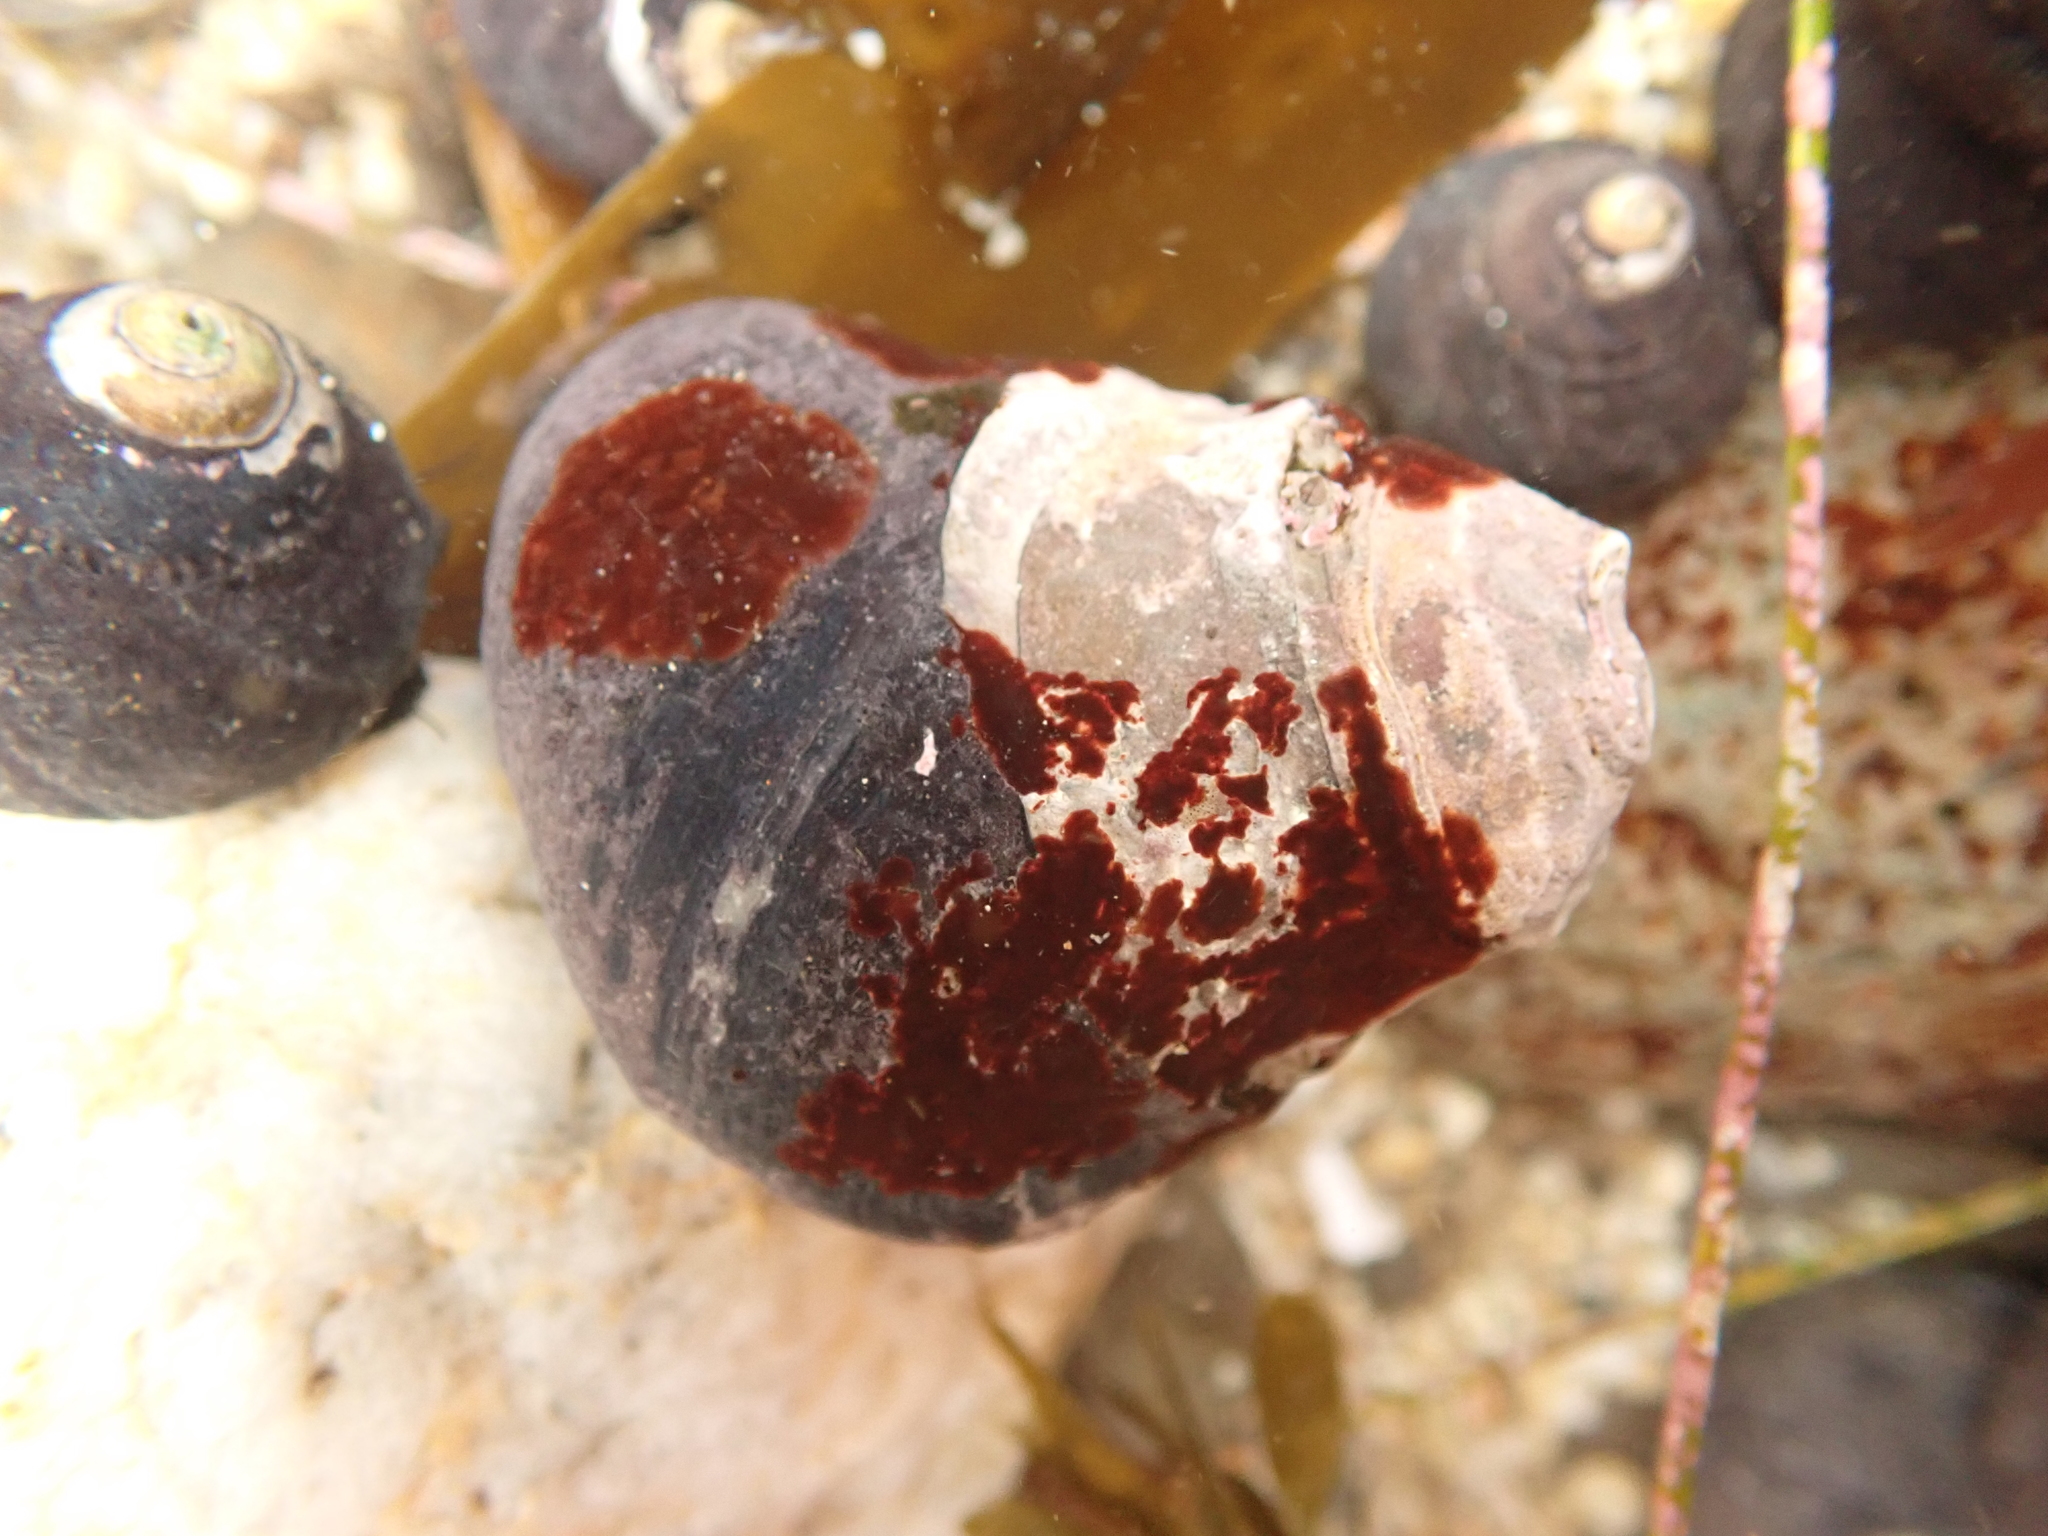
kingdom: Animalia
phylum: Mollusca
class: Gastropoda
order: Trochida
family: Tegulidae
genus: Tegula
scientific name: Tegula funebralis
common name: Black tegula
